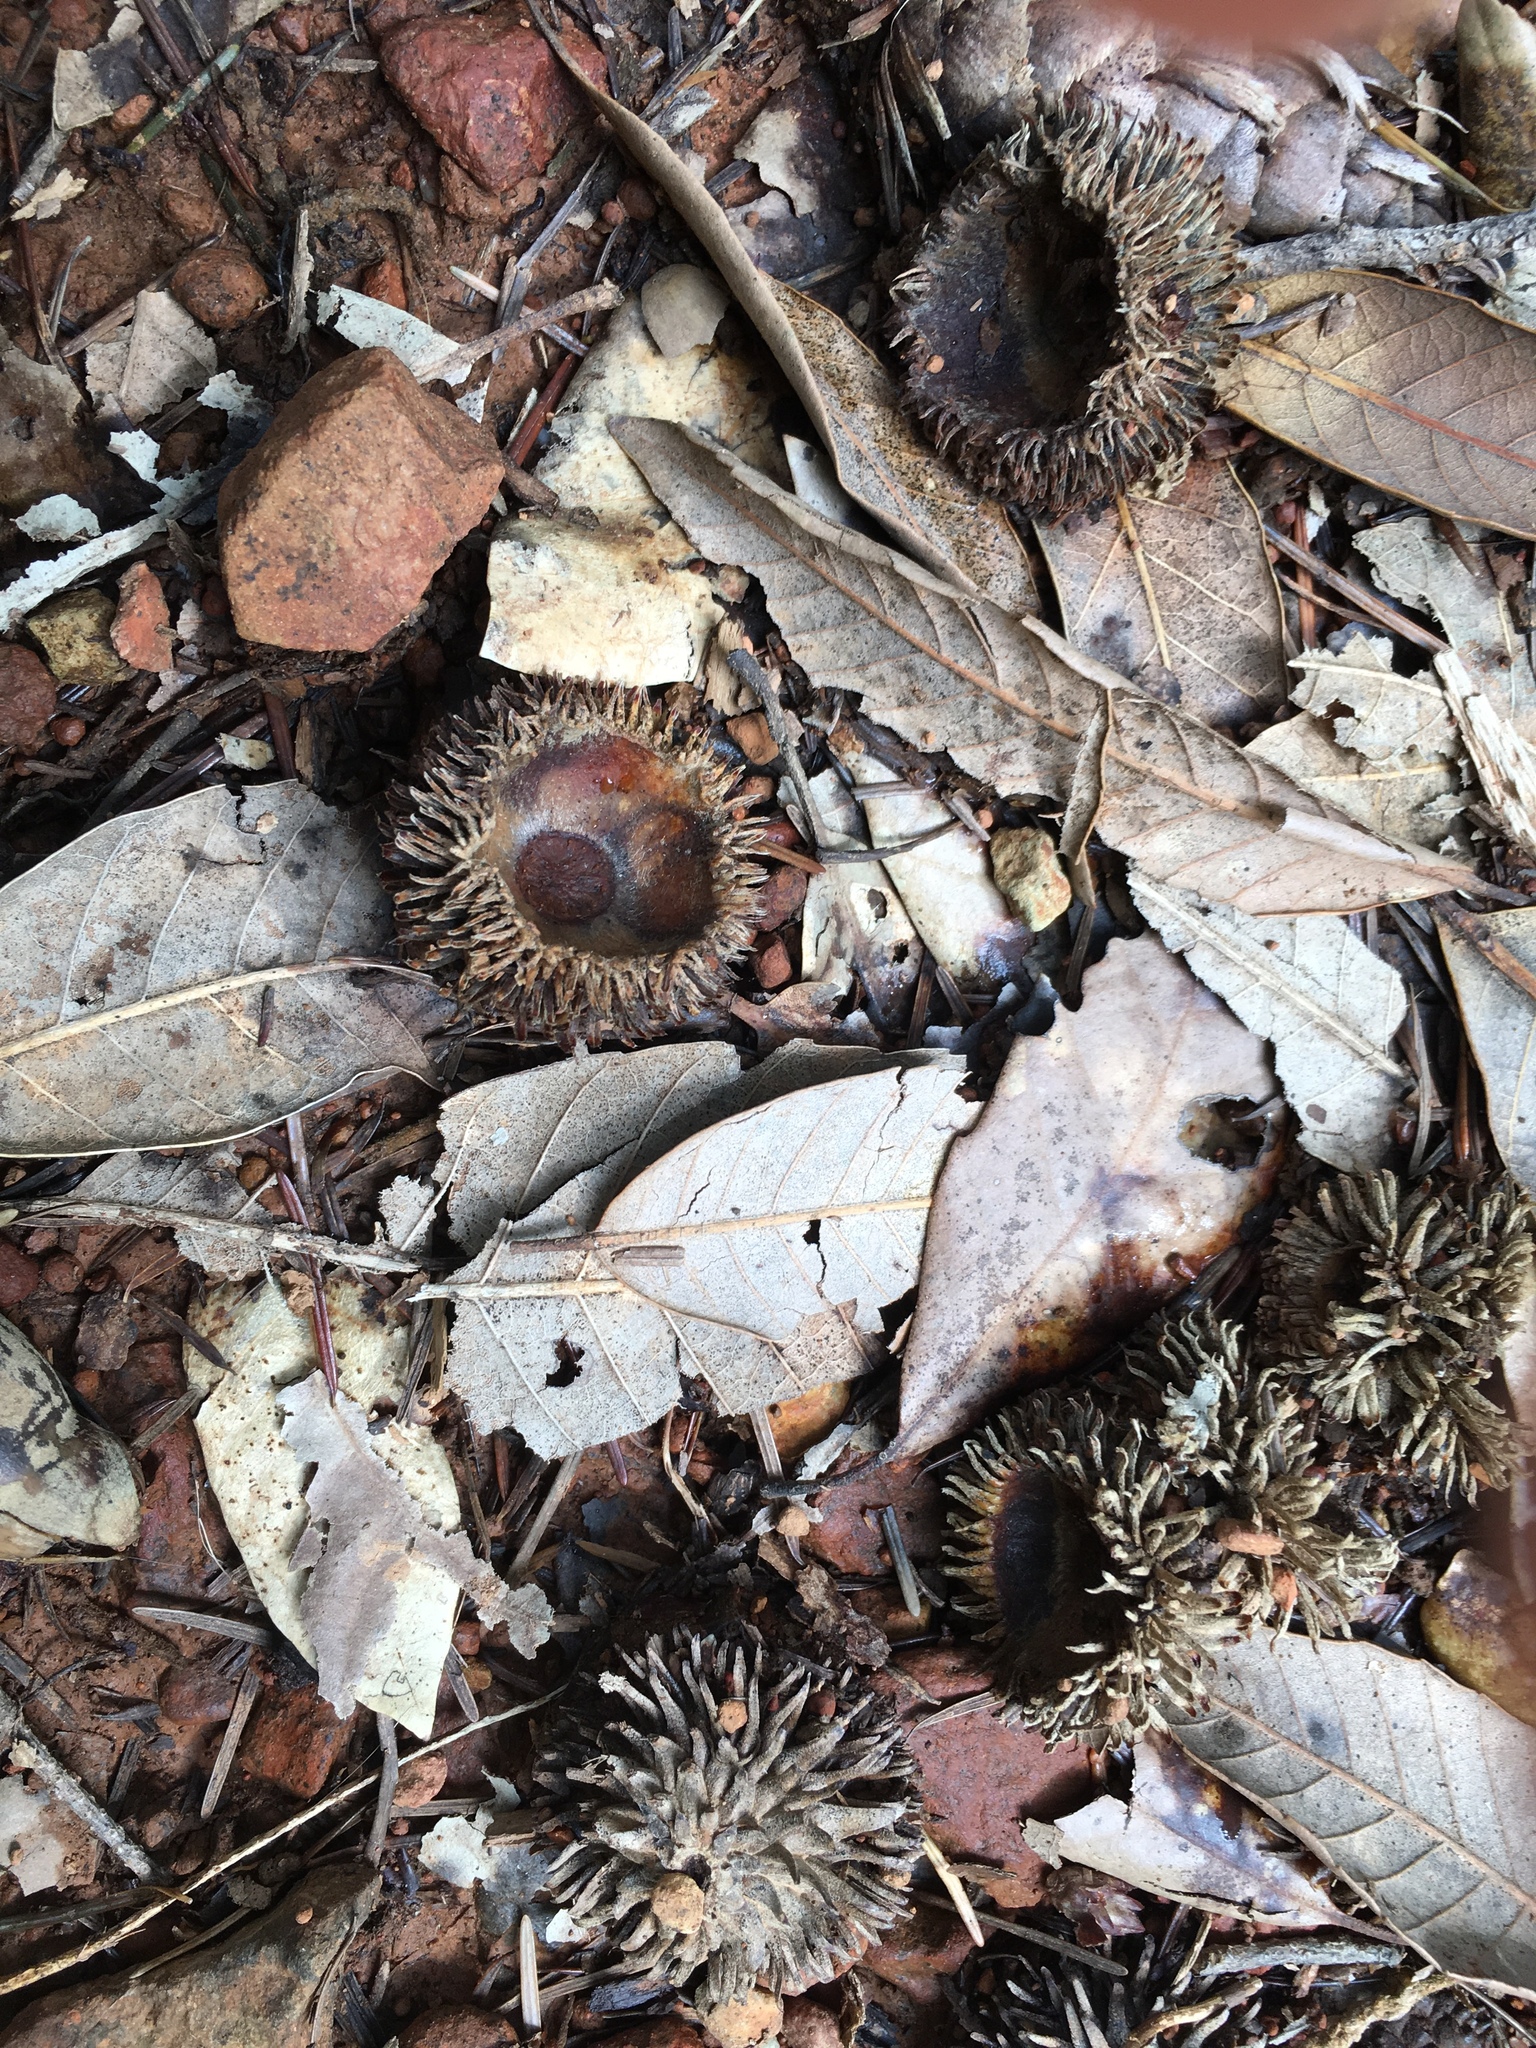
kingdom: Plantae
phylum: Tracheophyta
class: Magnoliopsida
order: Fagales
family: Fagaceae
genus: Notholithocarpus
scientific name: Notholithocarpus densiflorus
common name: Tan bark oak
